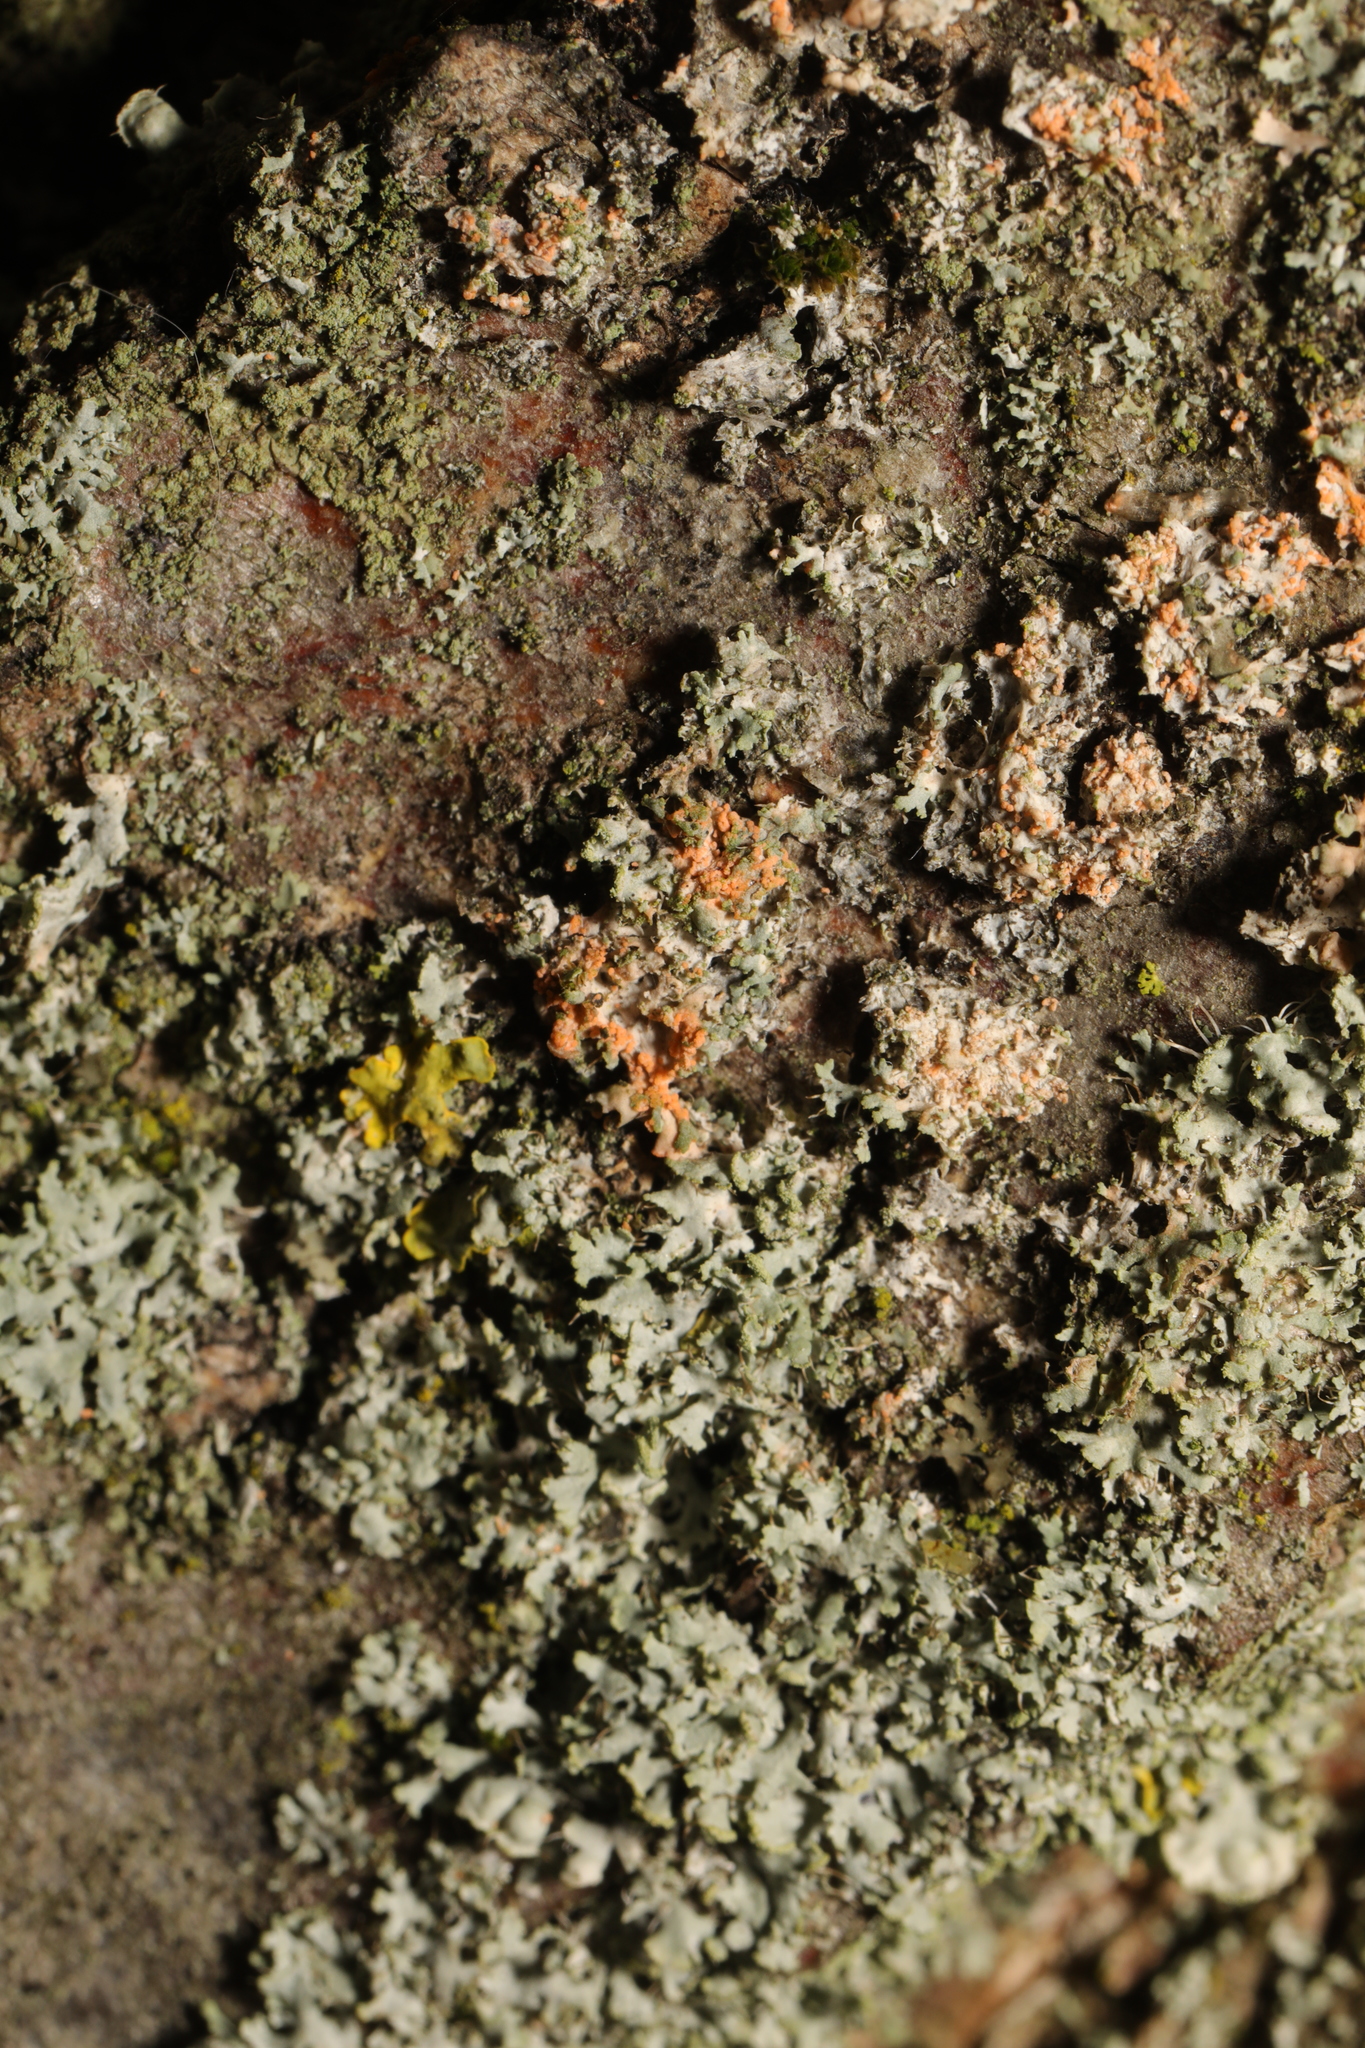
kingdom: Fungi
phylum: Basidiomycota
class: Agaricomycetes
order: Corticiales
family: Corticiaceae
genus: Erythricium
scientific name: Erythricium aurantiacum
